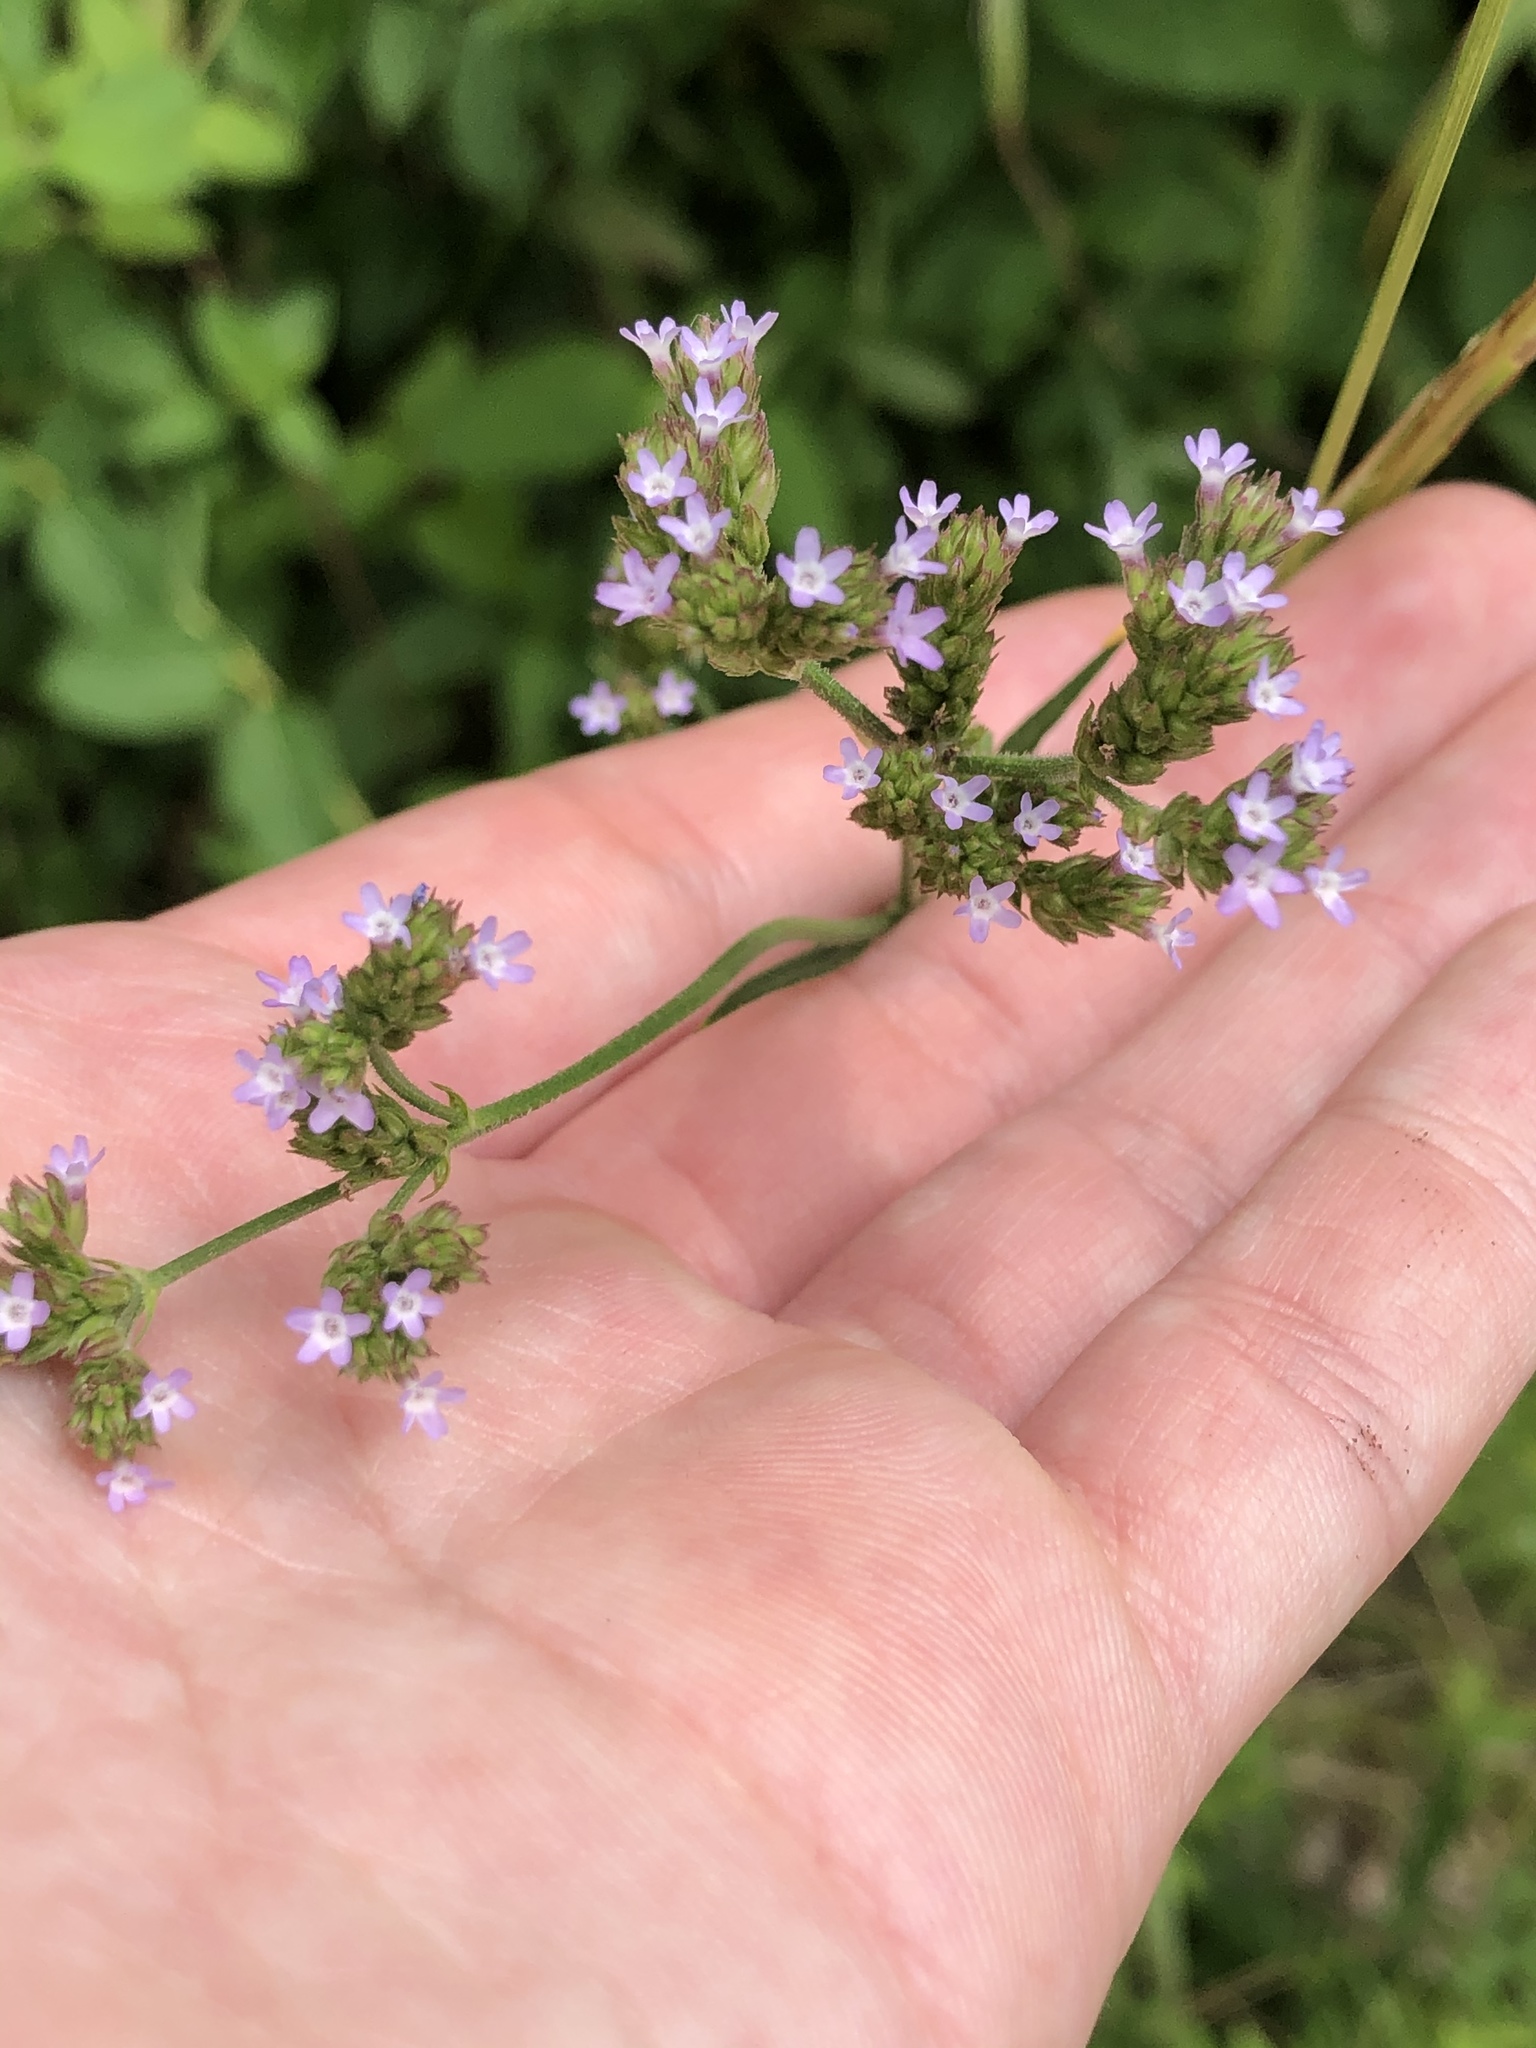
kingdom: Plantae
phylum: Tracheophyta
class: Magnoliopsida
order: Lamiales
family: Verbenaceae
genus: Verbena
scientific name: Verbena brasiliensis
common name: Brazilian vervain
